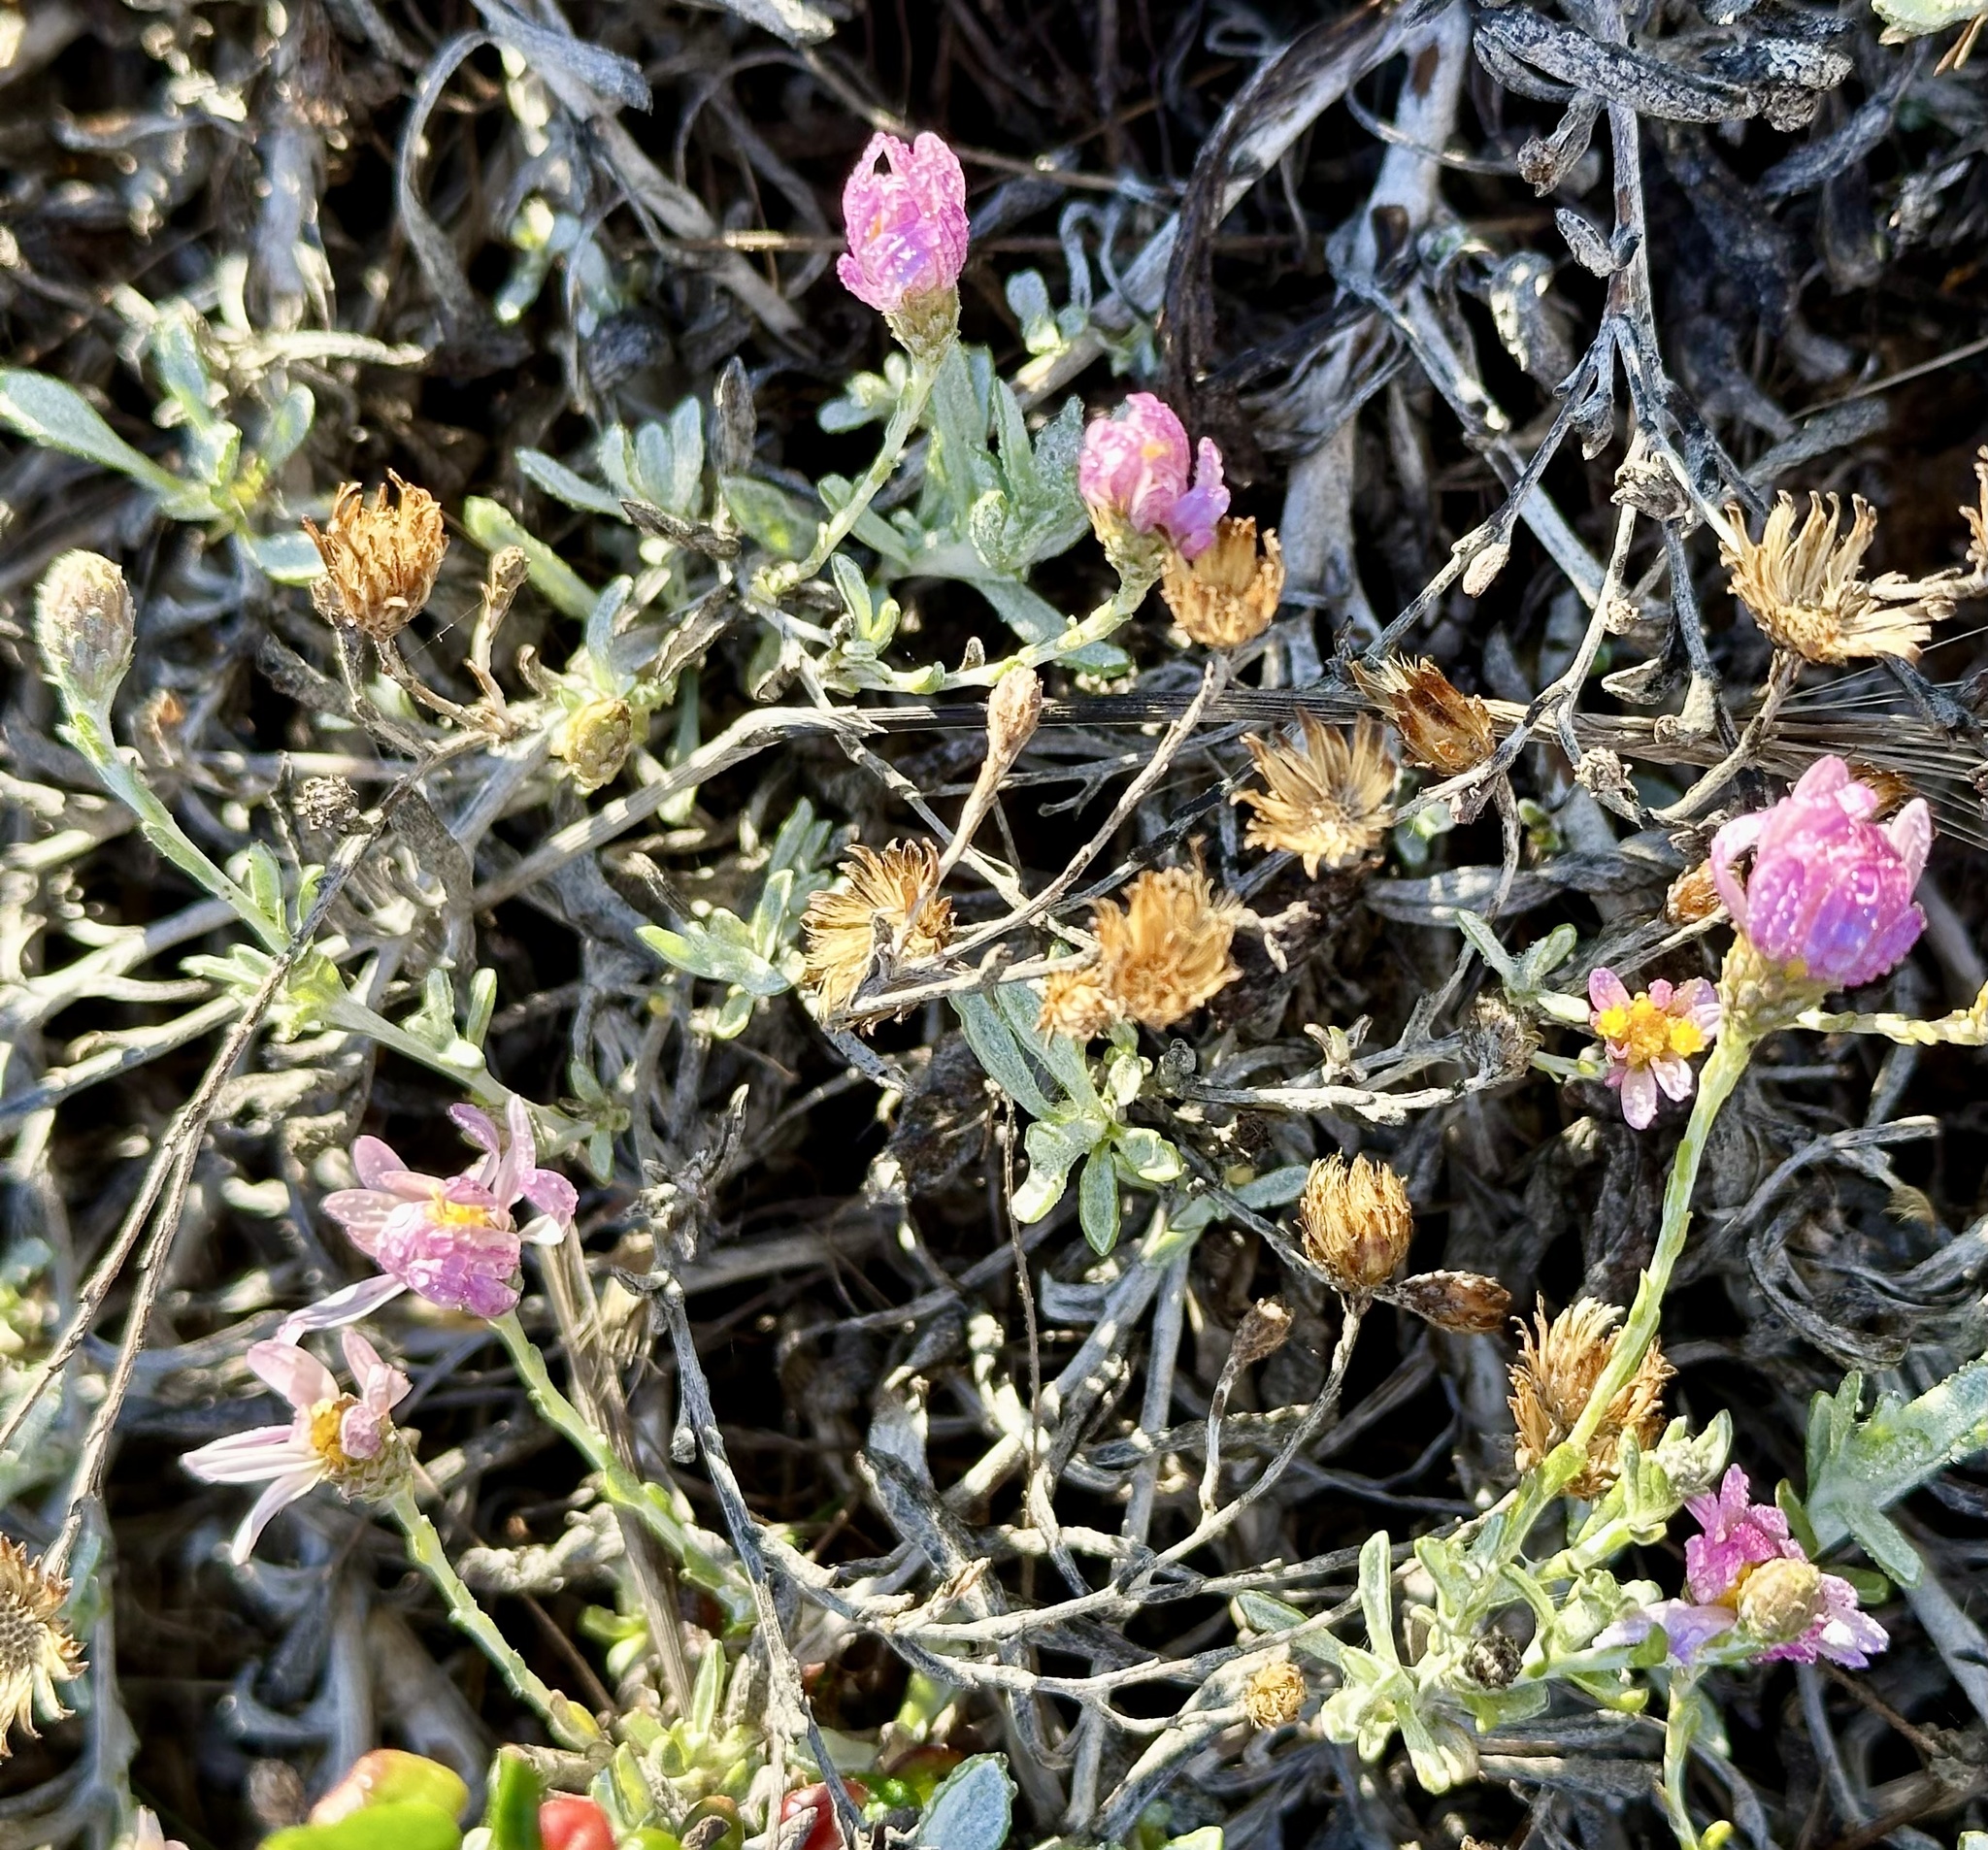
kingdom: Plantae
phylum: Tracheophyta
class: Magnoliopsida
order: Asterales
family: Asteraceae
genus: Corethrogyne
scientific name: Corethrogyne filaginifolia
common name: Sand-aster
